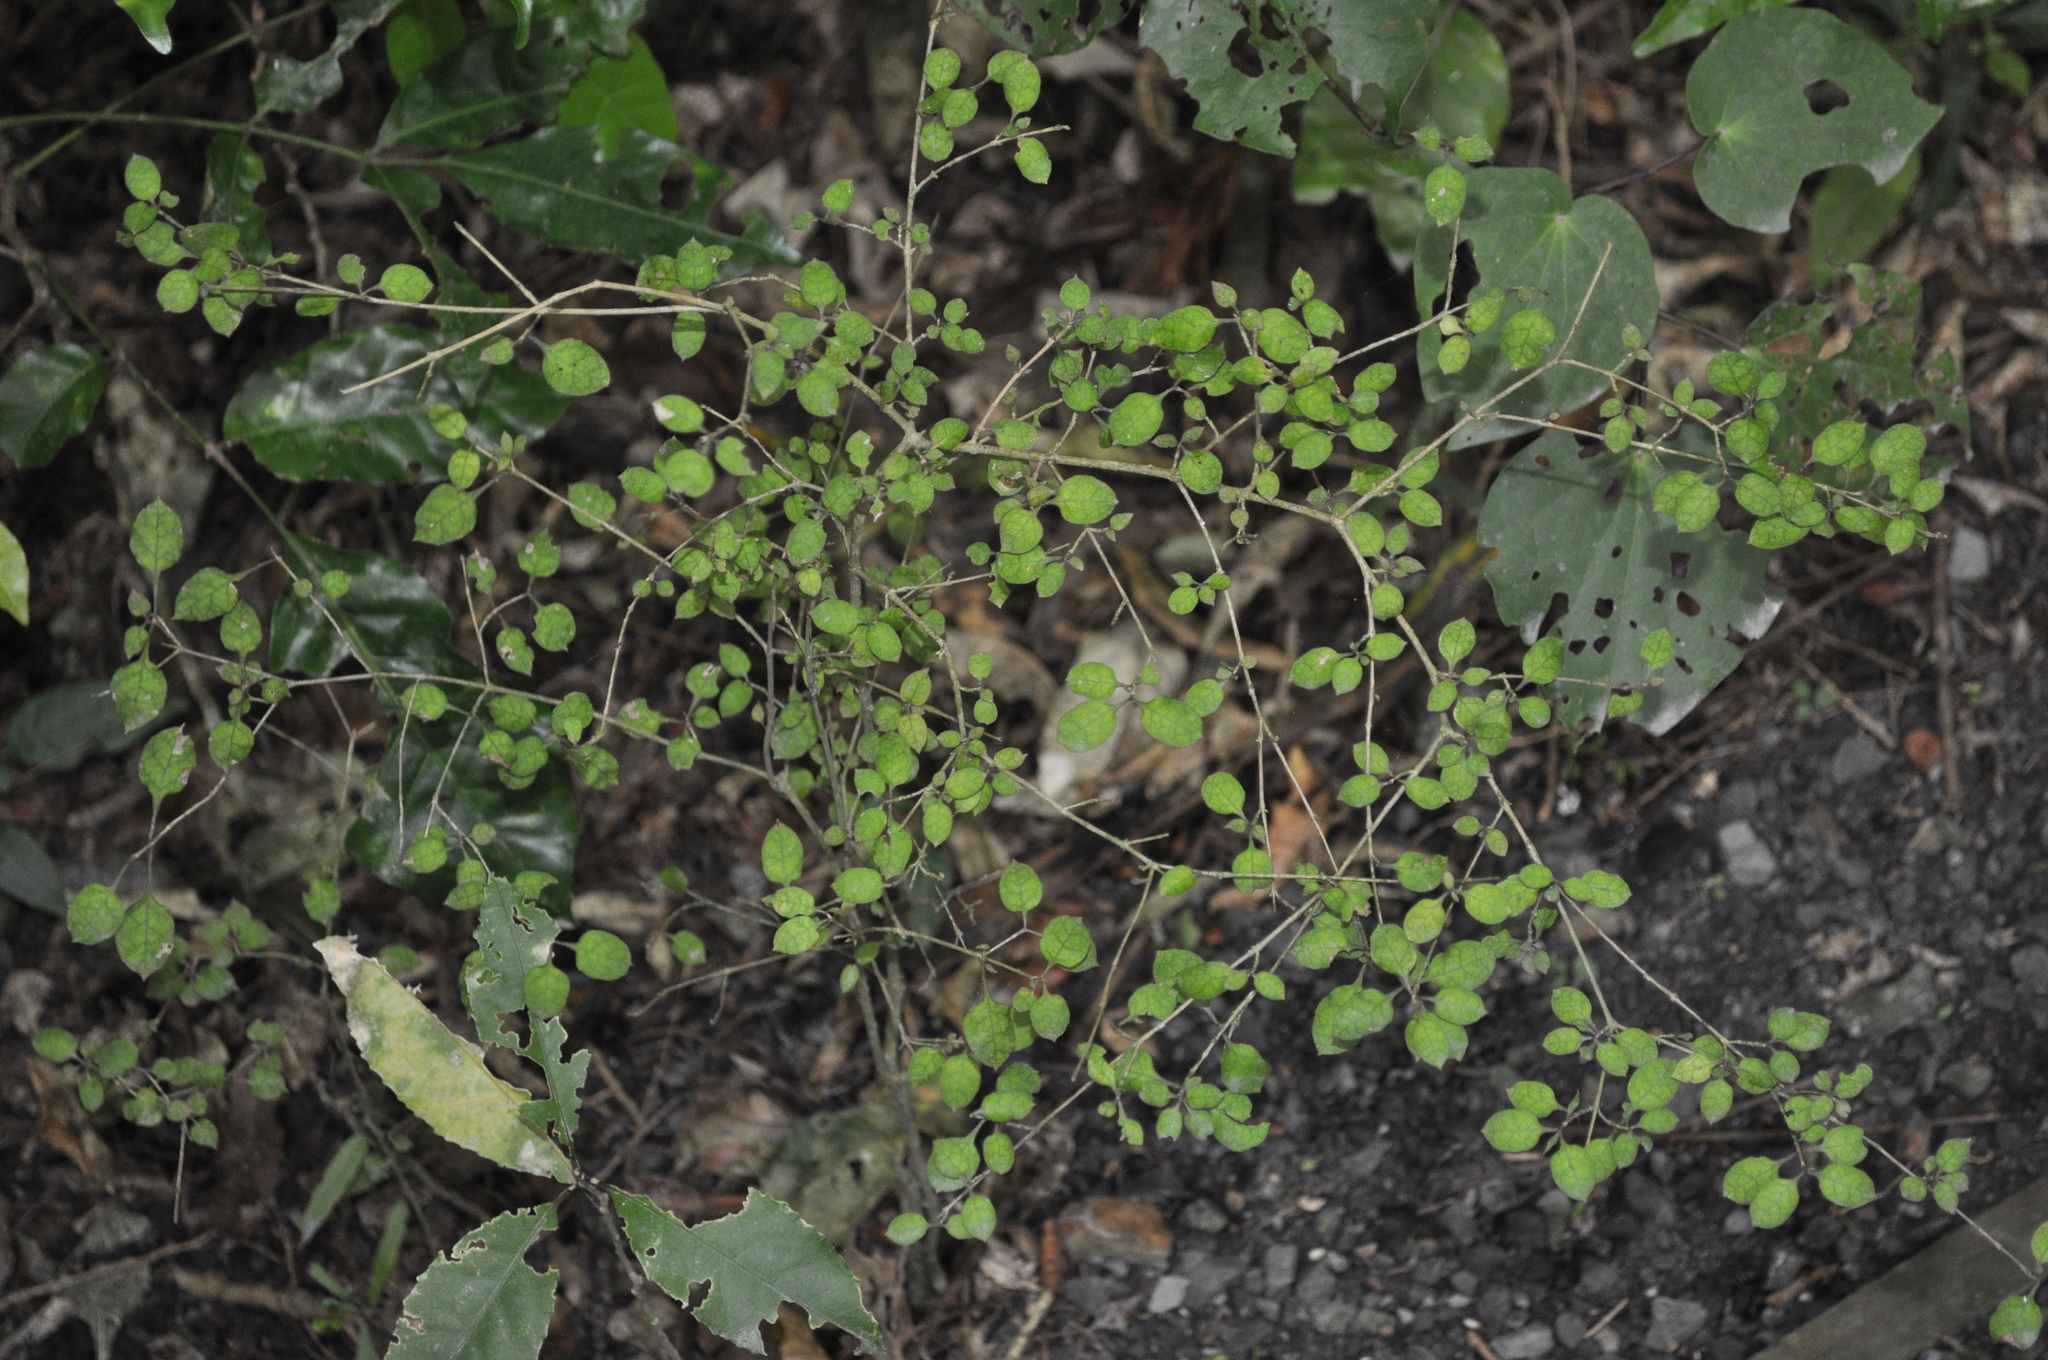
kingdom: Plantae
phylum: Tracheophyta
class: Magnoliopsida
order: Gentianales
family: Rubiaceae
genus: Coprosma
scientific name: Coprosma areolata
